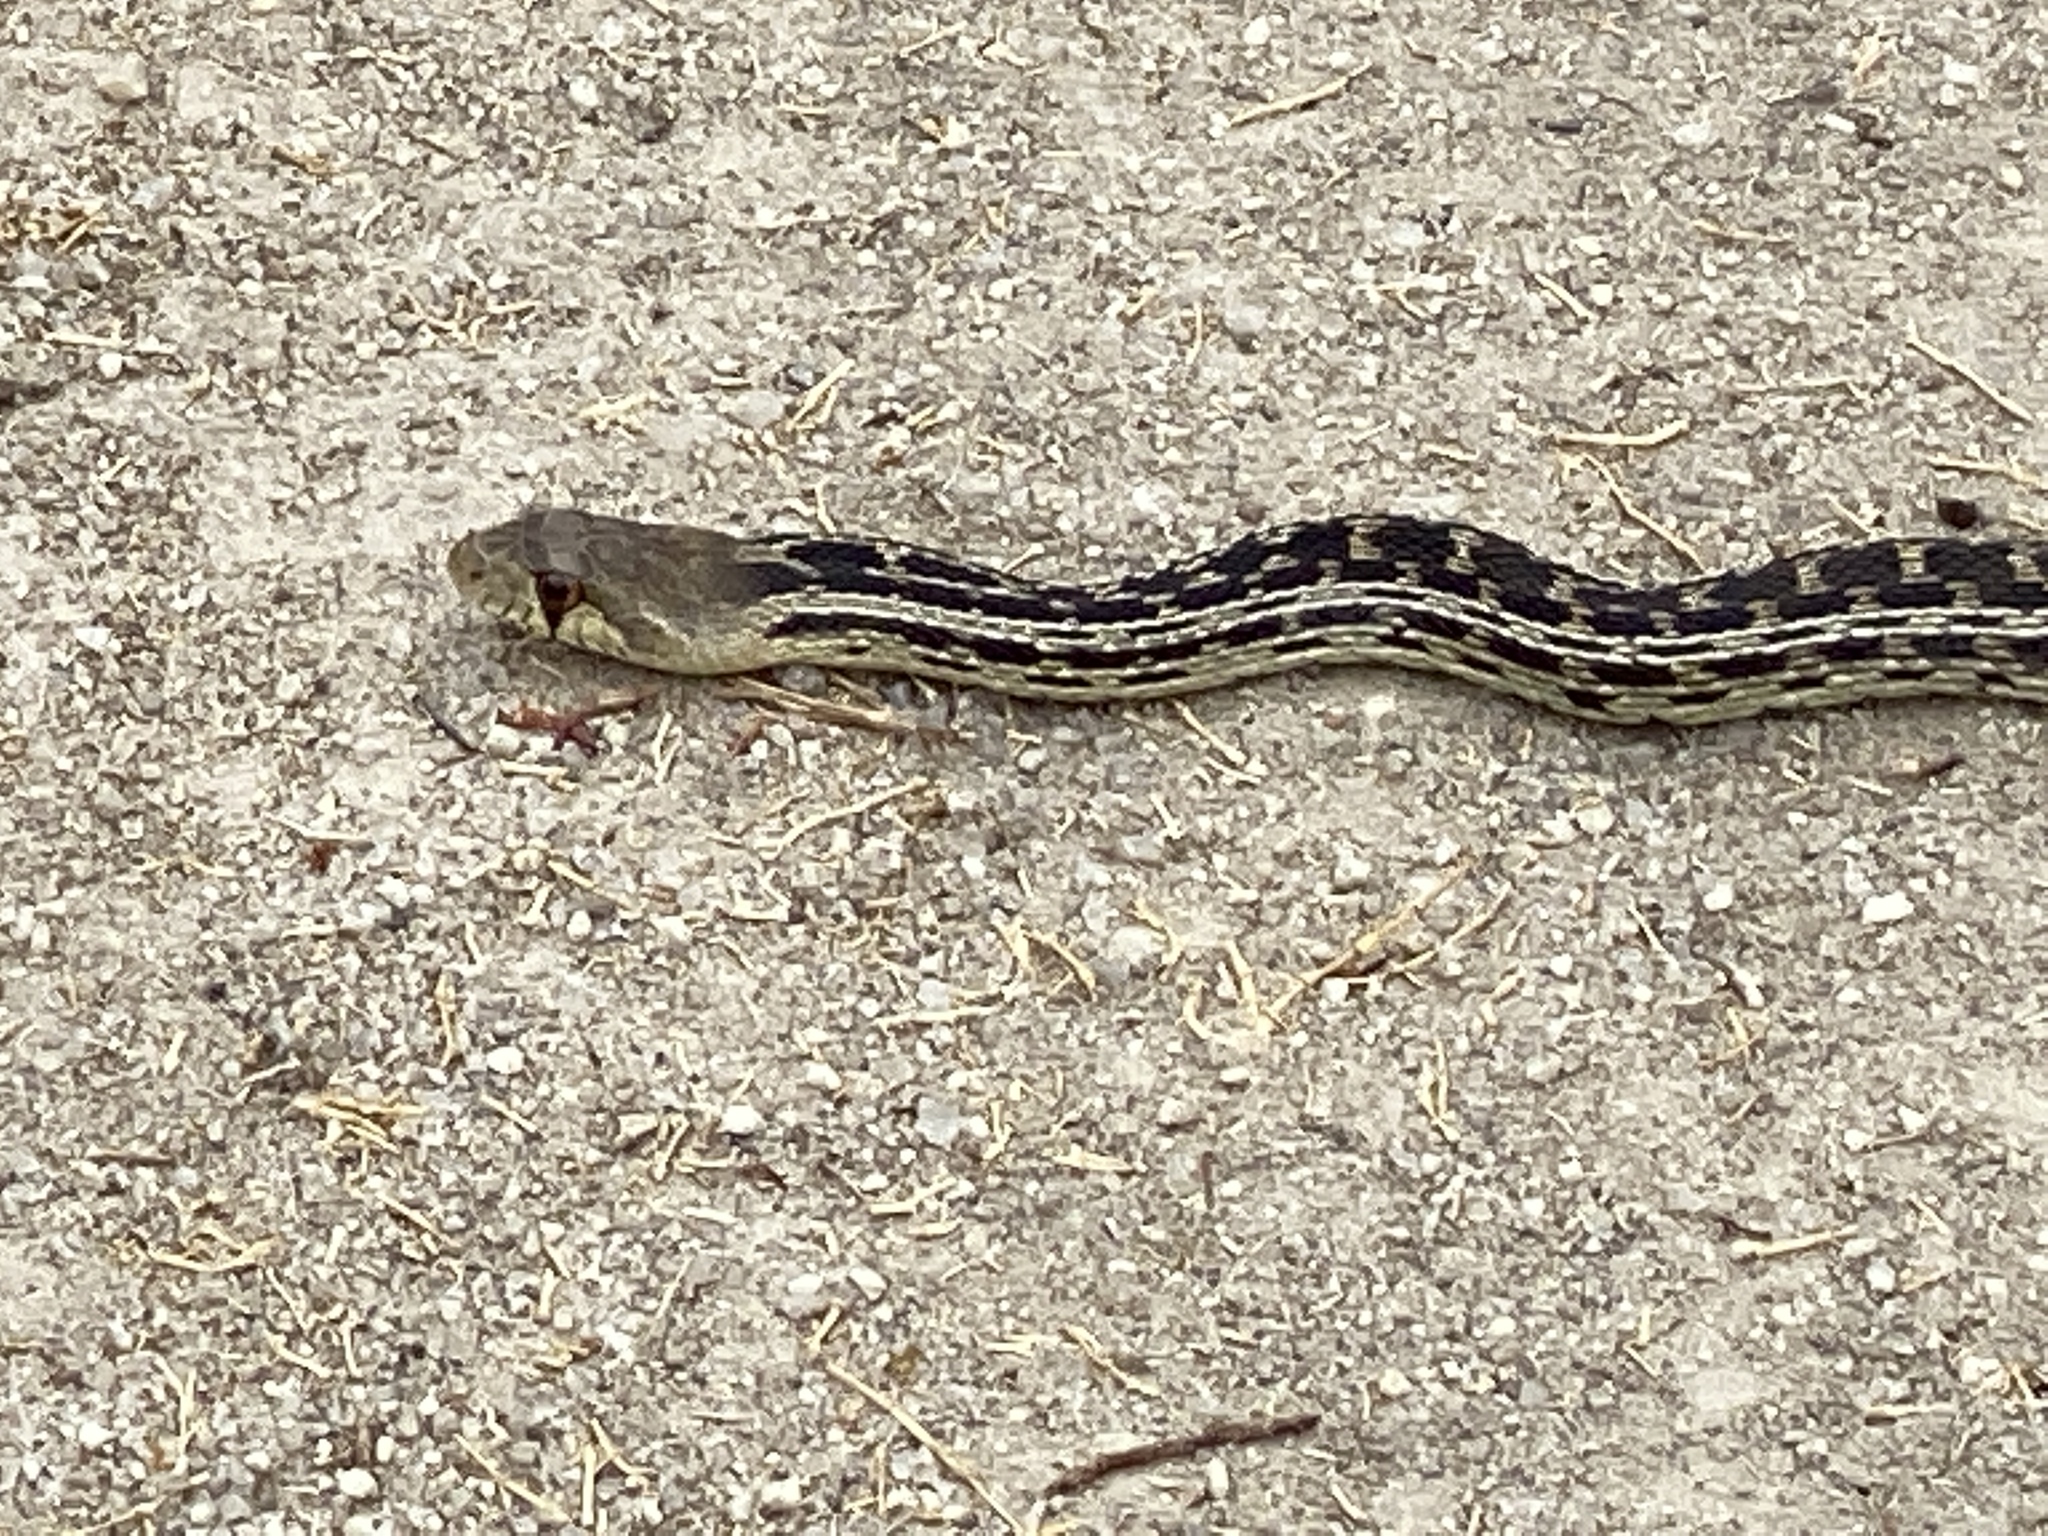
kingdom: Animalia
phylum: Chordata
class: Squamata
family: Colubridae
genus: Pituophis
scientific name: Pituophis catenifer
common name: Gopher snake
